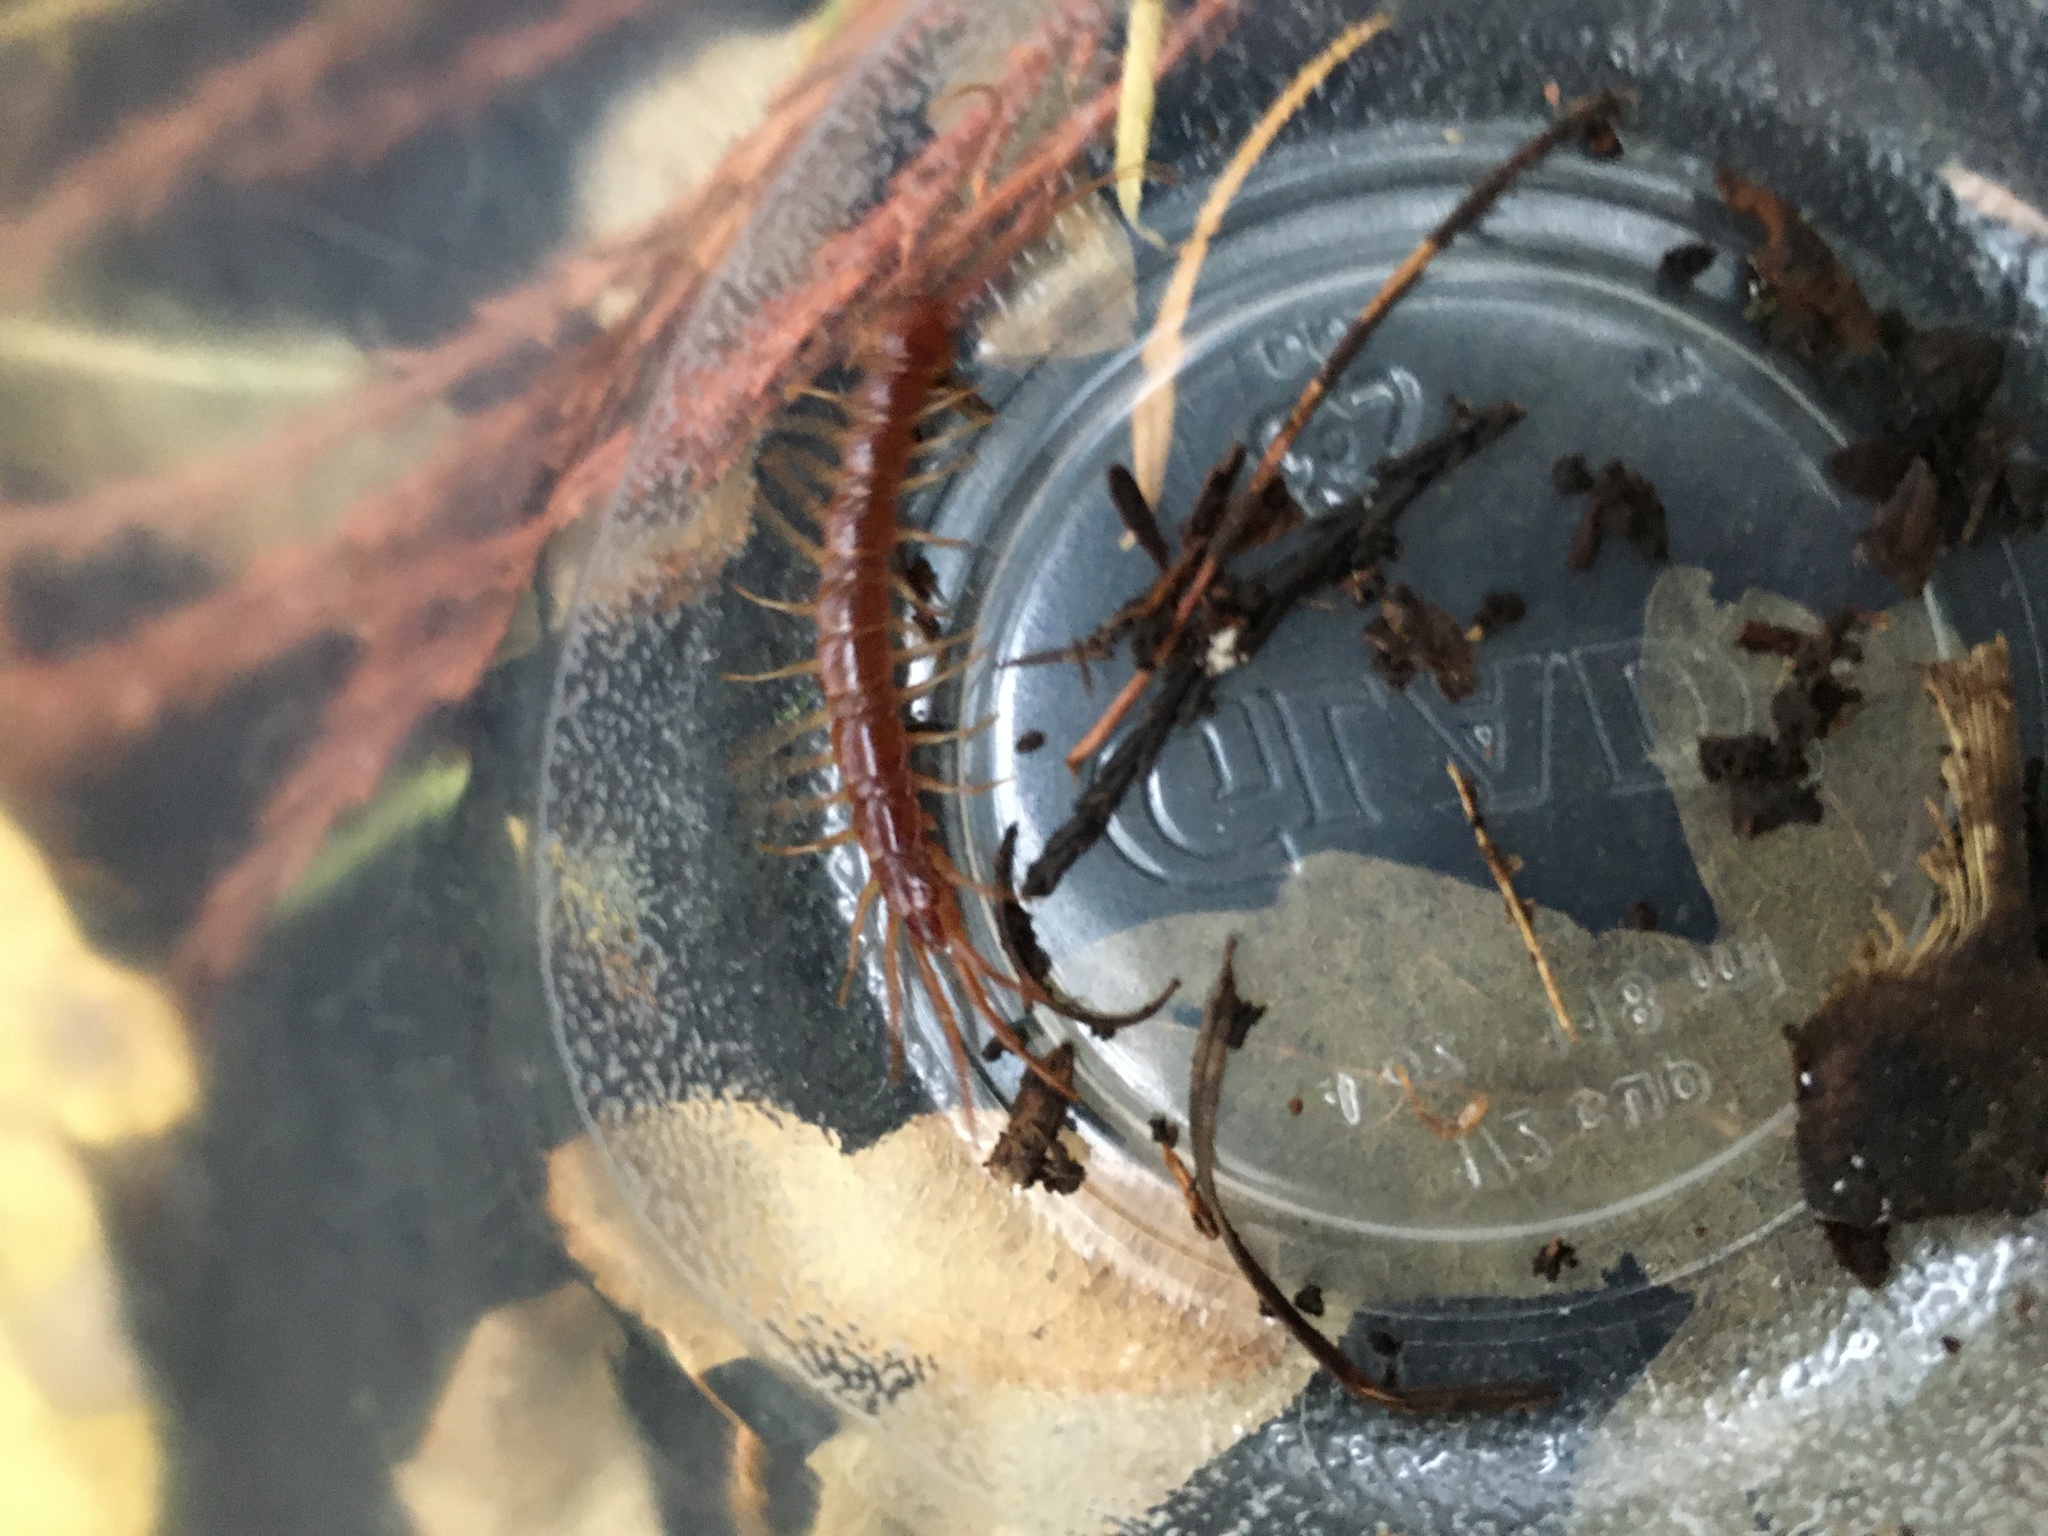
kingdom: Animalia
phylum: Arthropoda
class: Chilopoda
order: Lithobiomorpha
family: Lithobiidae
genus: Lithobius
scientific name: Lithobius forficatus
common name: Centipede
